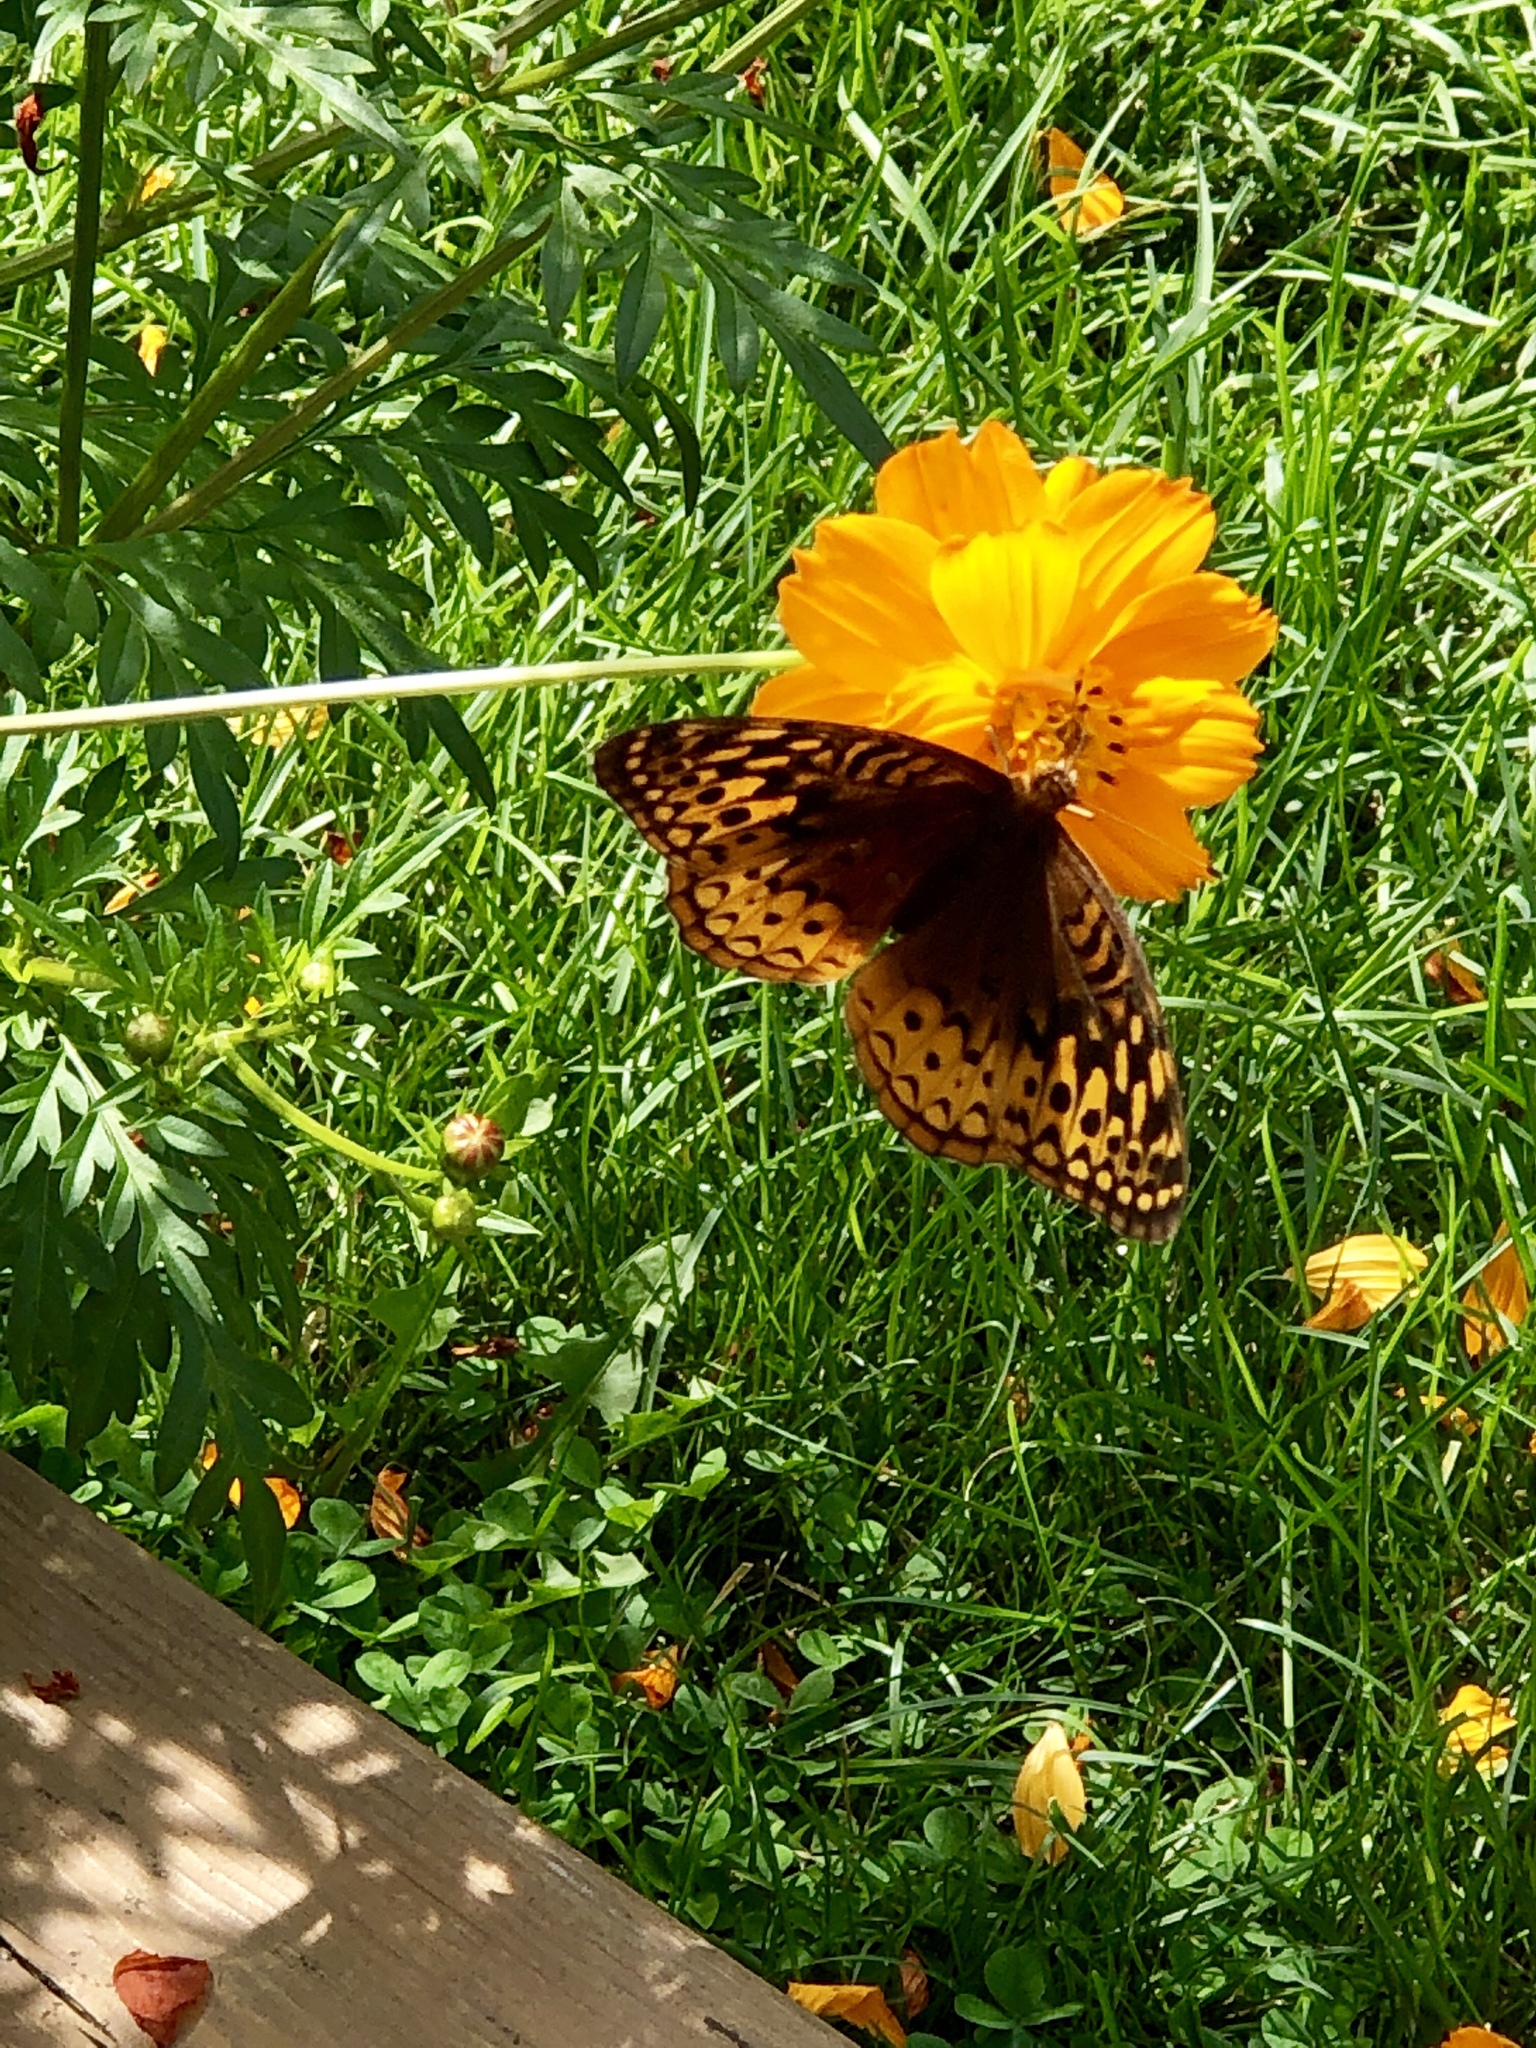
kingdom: Animalia
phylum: Arthropoda
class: Insecta
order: Lepidoptera
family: Nymphalidae
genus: Speyeria
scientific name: Speyeria cybele
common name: Great spangled fritillary
